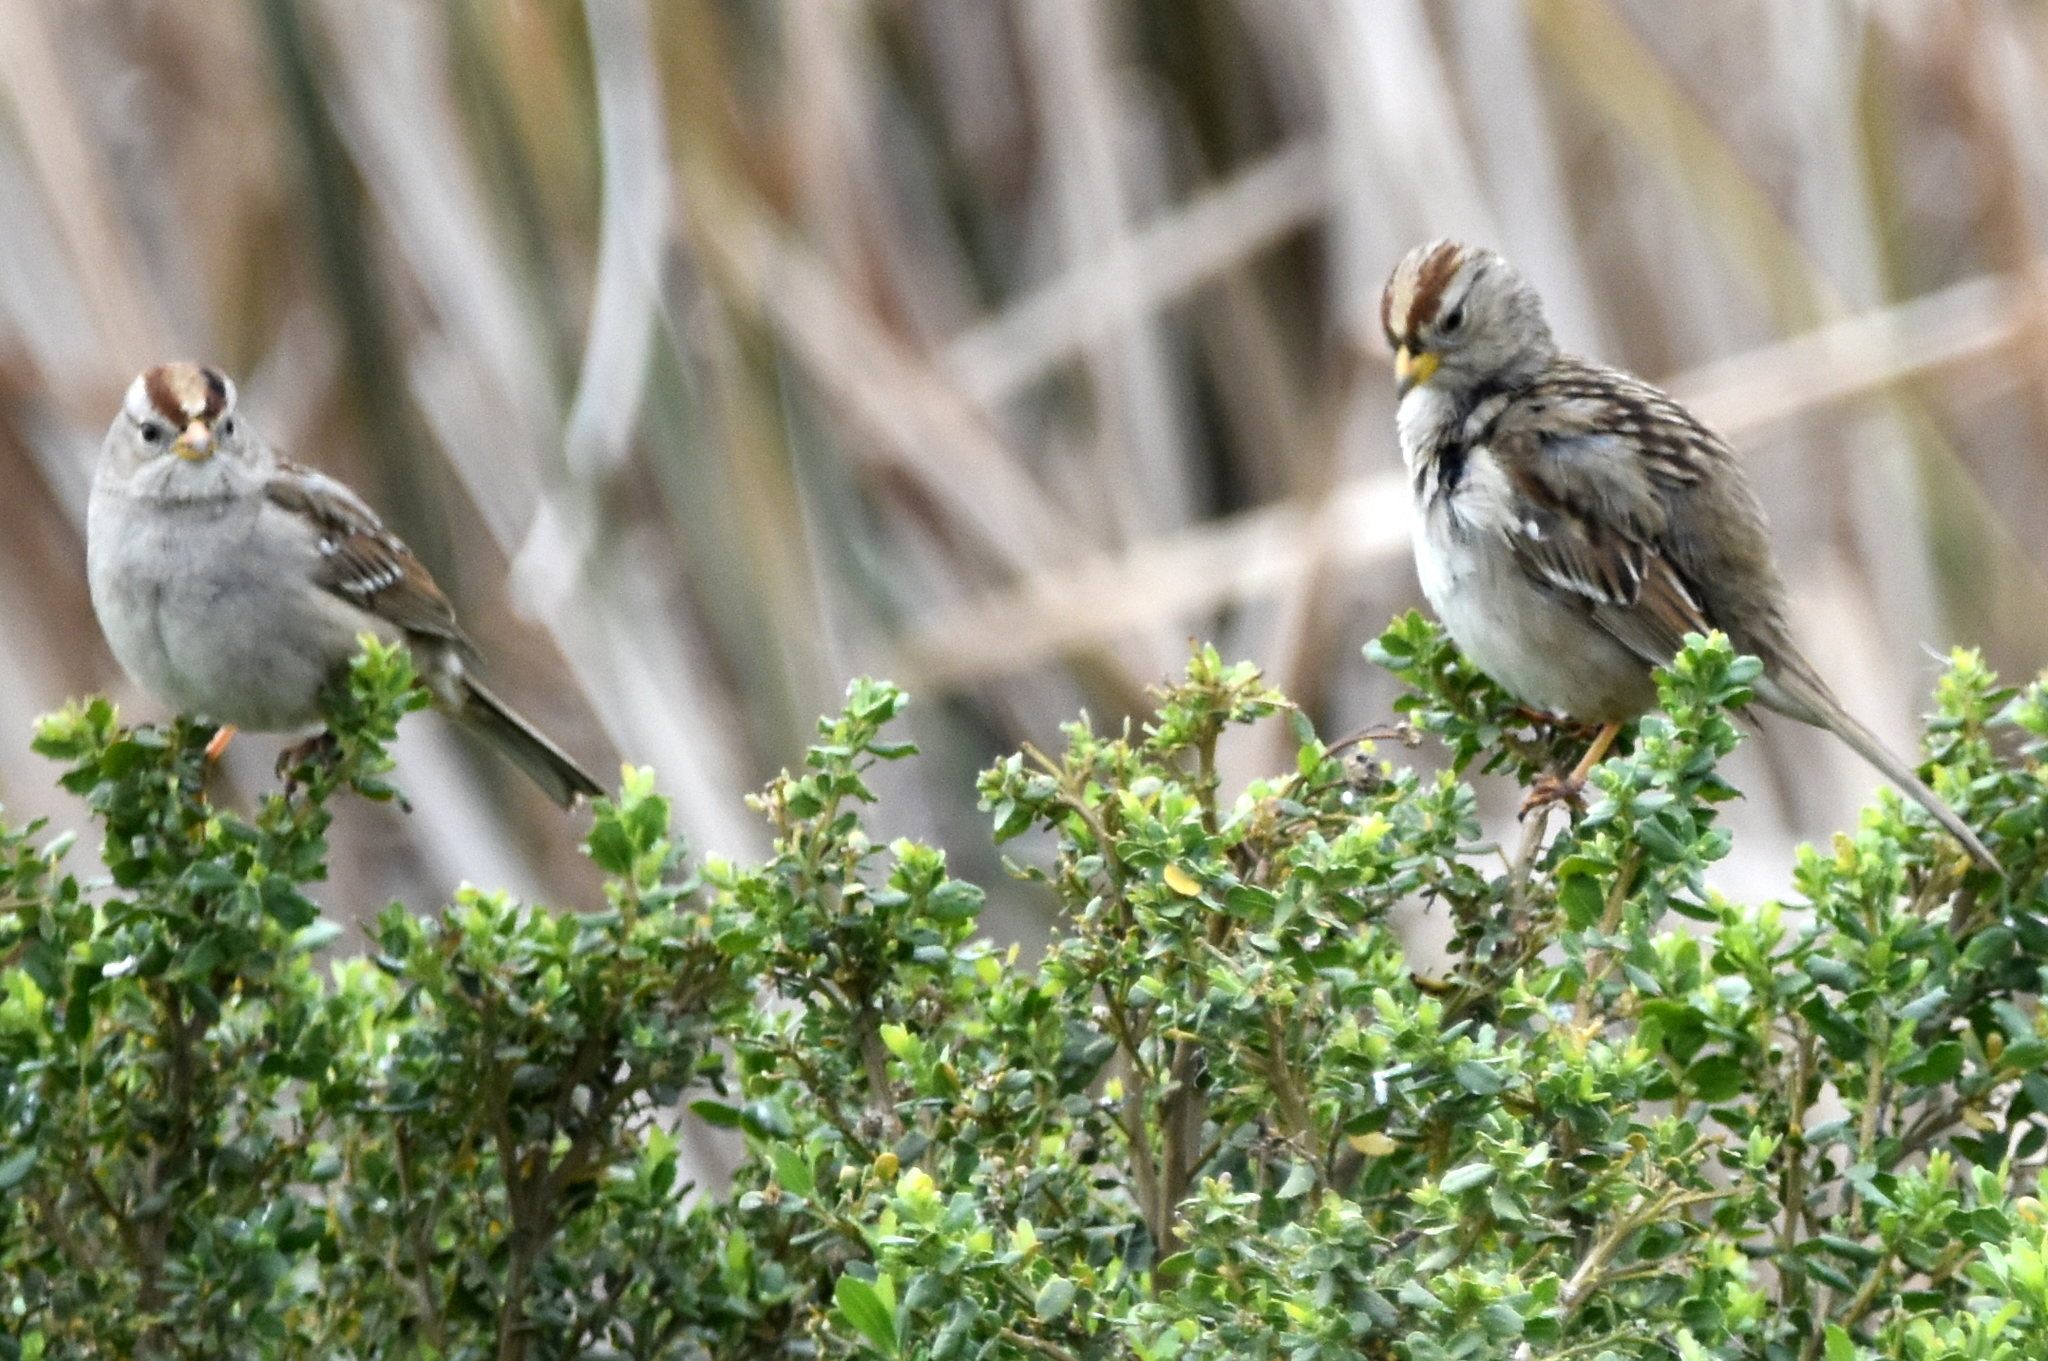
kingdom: Animalia
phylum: Chordata
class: Aves
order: Passeriformes
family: Passerellidae
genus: Zonotrichia
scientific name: Zonotrichia leucophrys
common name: White-crowned sparrow
